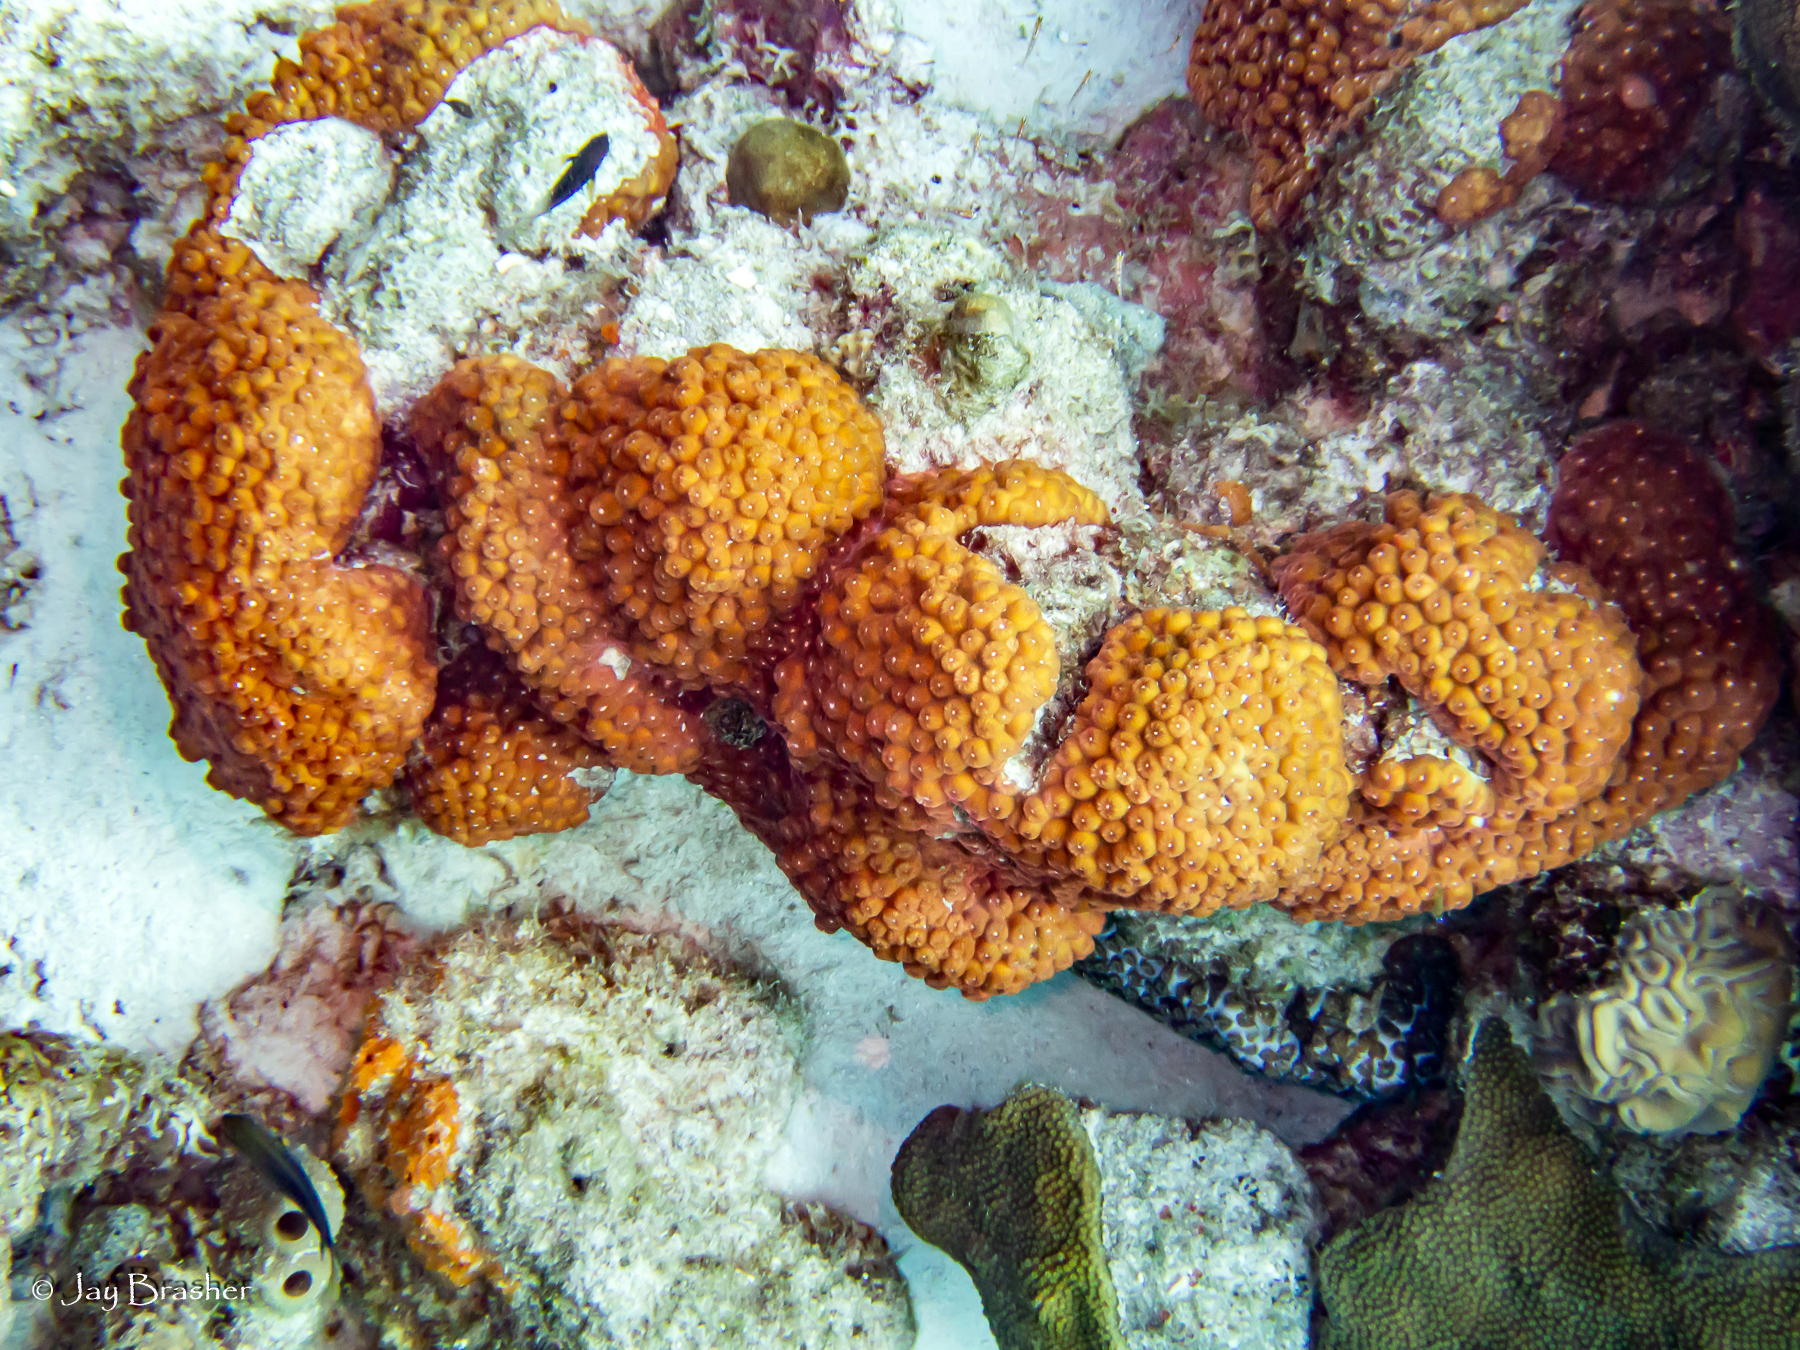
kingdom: Animalia
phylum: Cnidaria
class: Anthozoa
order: Scleractinia
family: Montastraeidae
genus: Montastraea
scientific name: Montastraea cavernosa
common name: Great star coral
